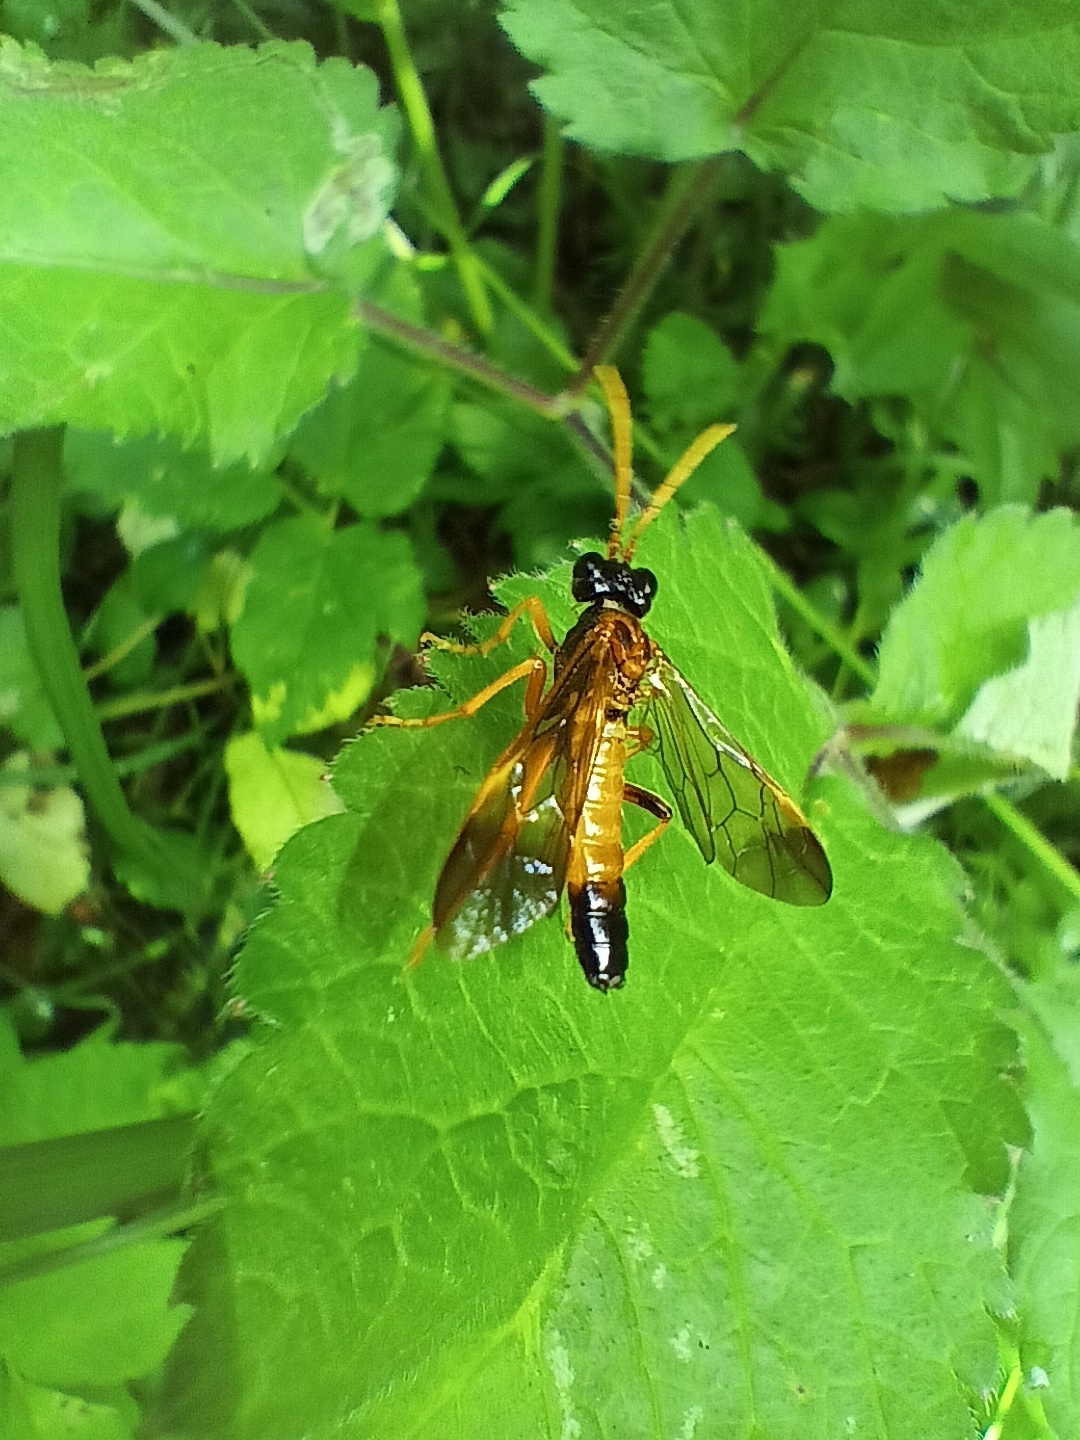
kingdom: Animalia
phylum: Arthropoda
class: Insecta
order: Hymenoptera
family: Tenthredinidae
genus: Tenthredo
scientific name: Tenthredo campestris
